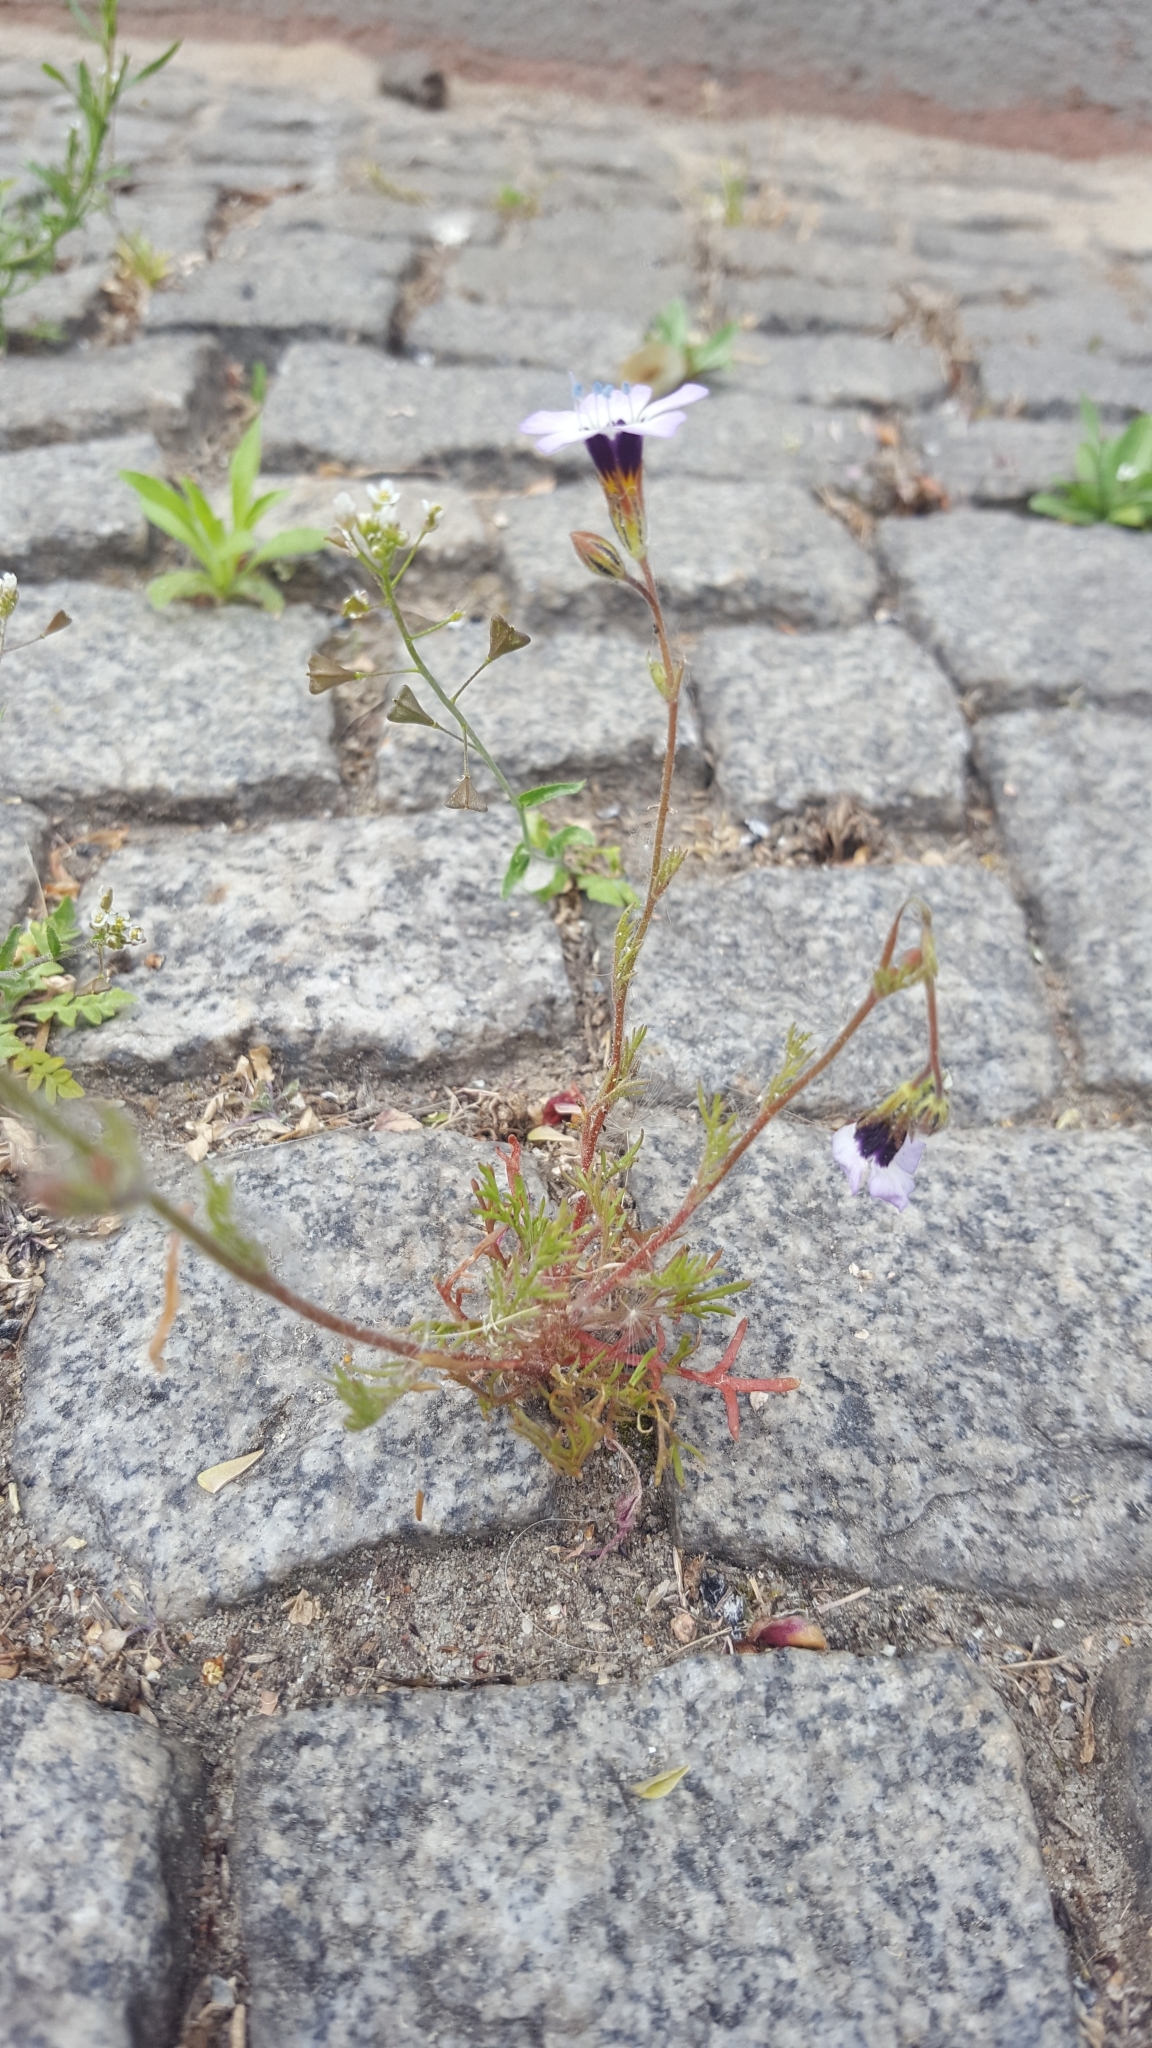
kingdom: Plantae
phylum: Tracheophyta
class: Magnoliopsida
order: Ericales
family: Polemoniaceae
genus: Gilia
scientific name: Gilia tricolor
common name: Bird's-eyes
